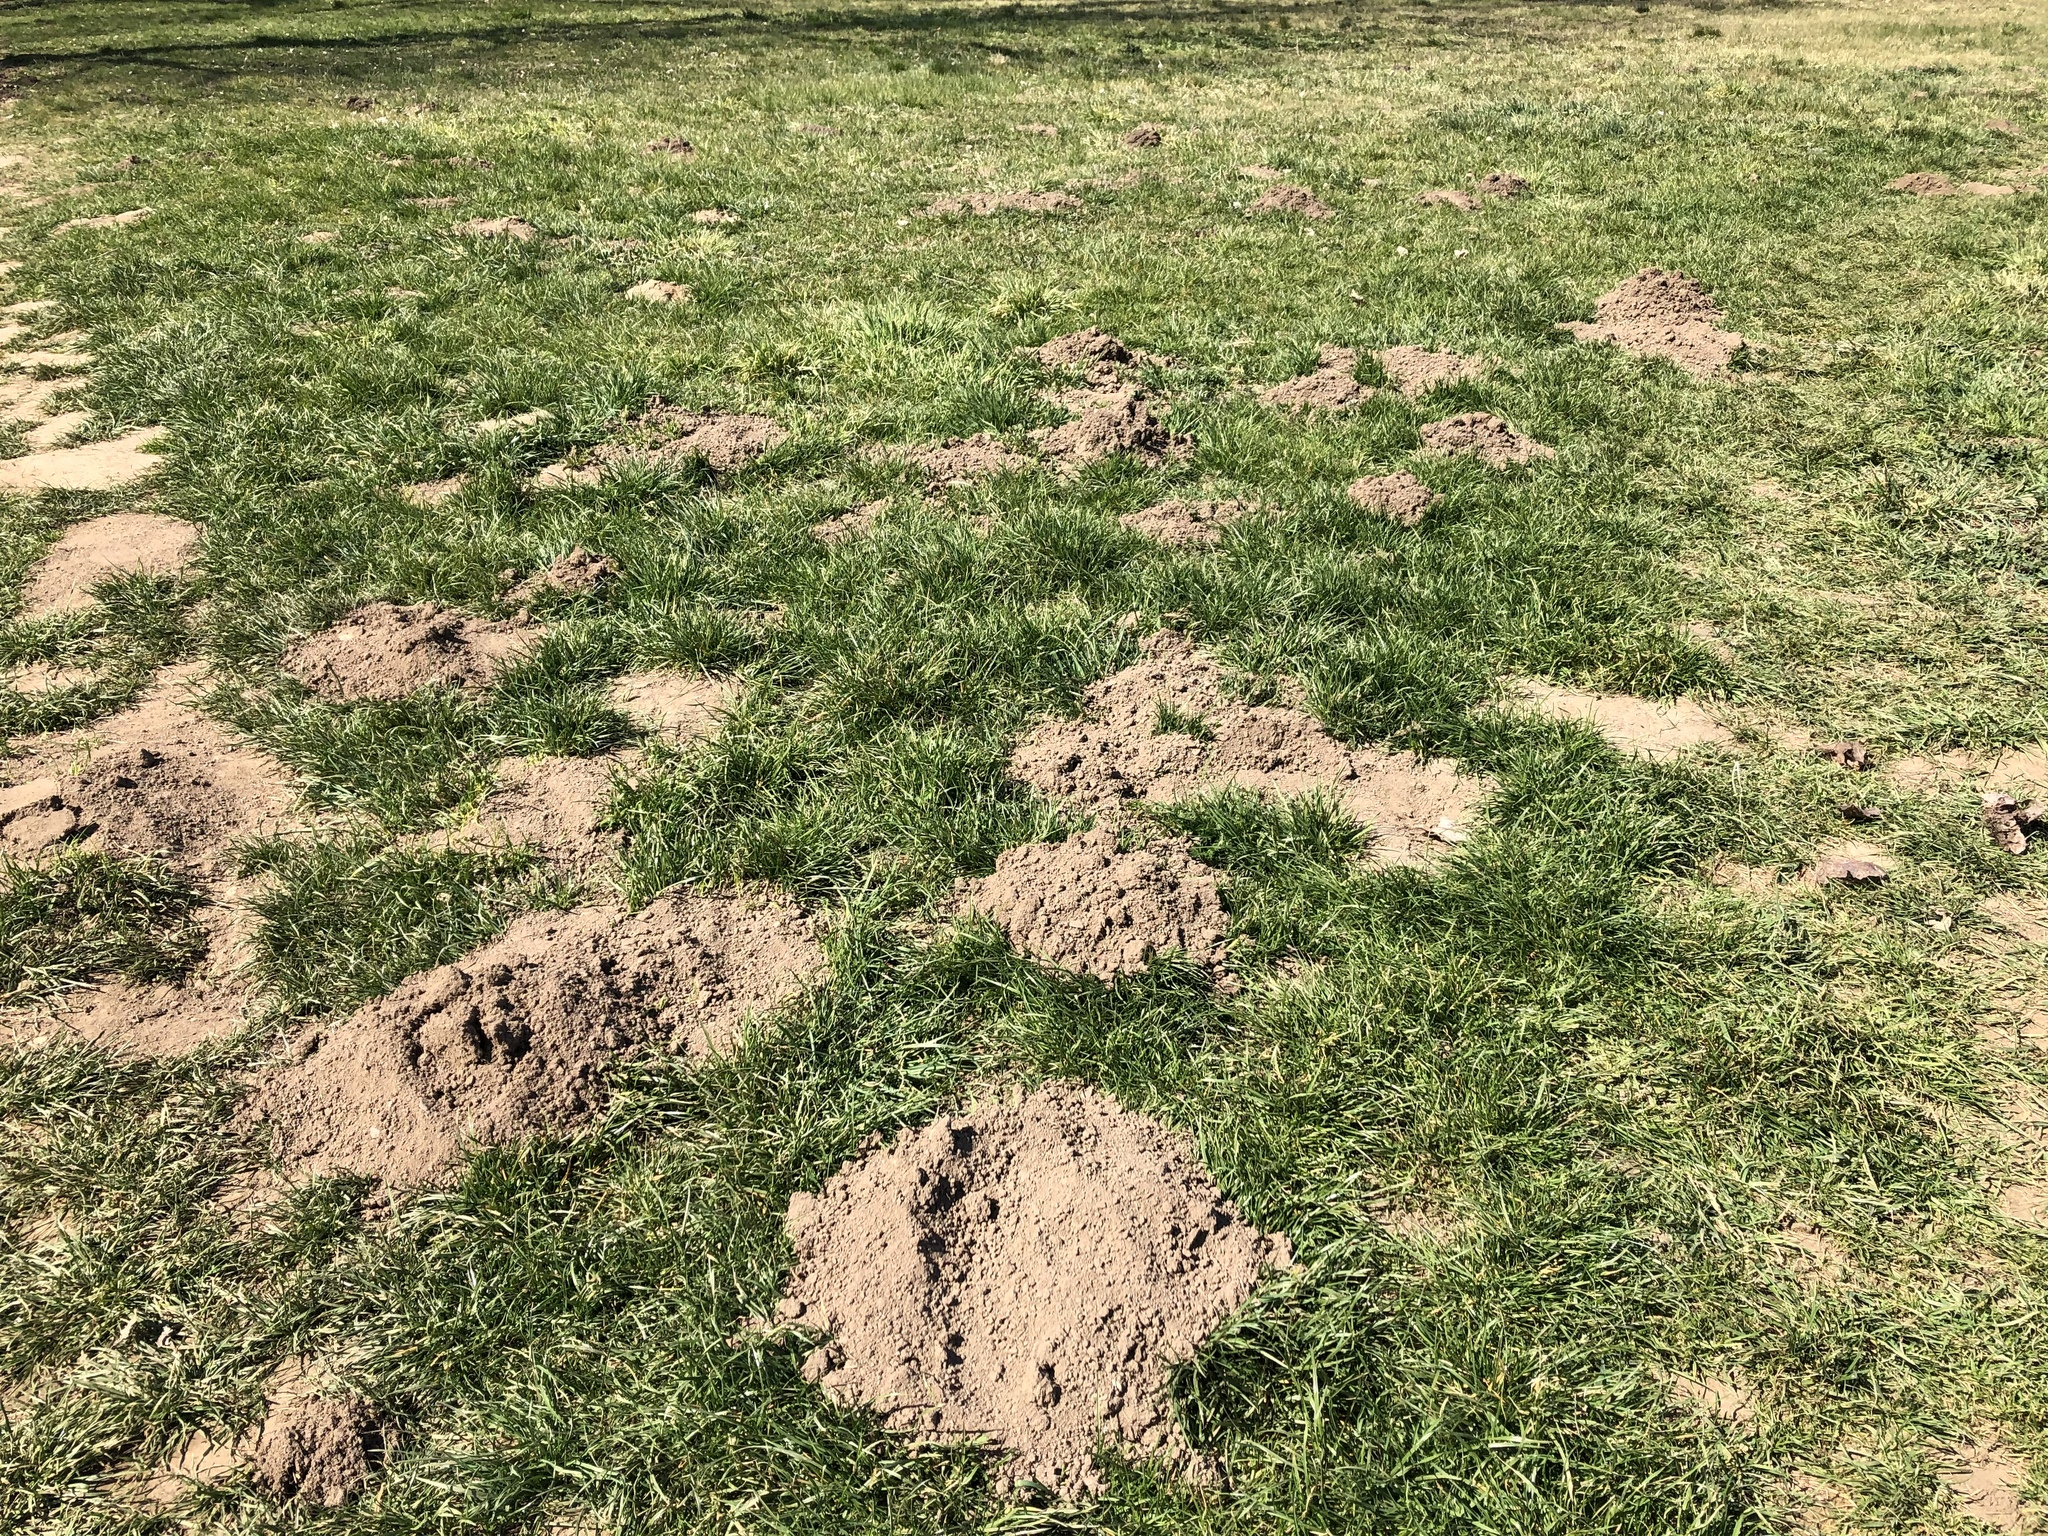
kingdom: Animalia
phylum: Chordata
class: Mammalia
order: Soricomorpha
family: Talpidae
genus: Talpa
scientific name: Talpa europaea
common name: European mole
